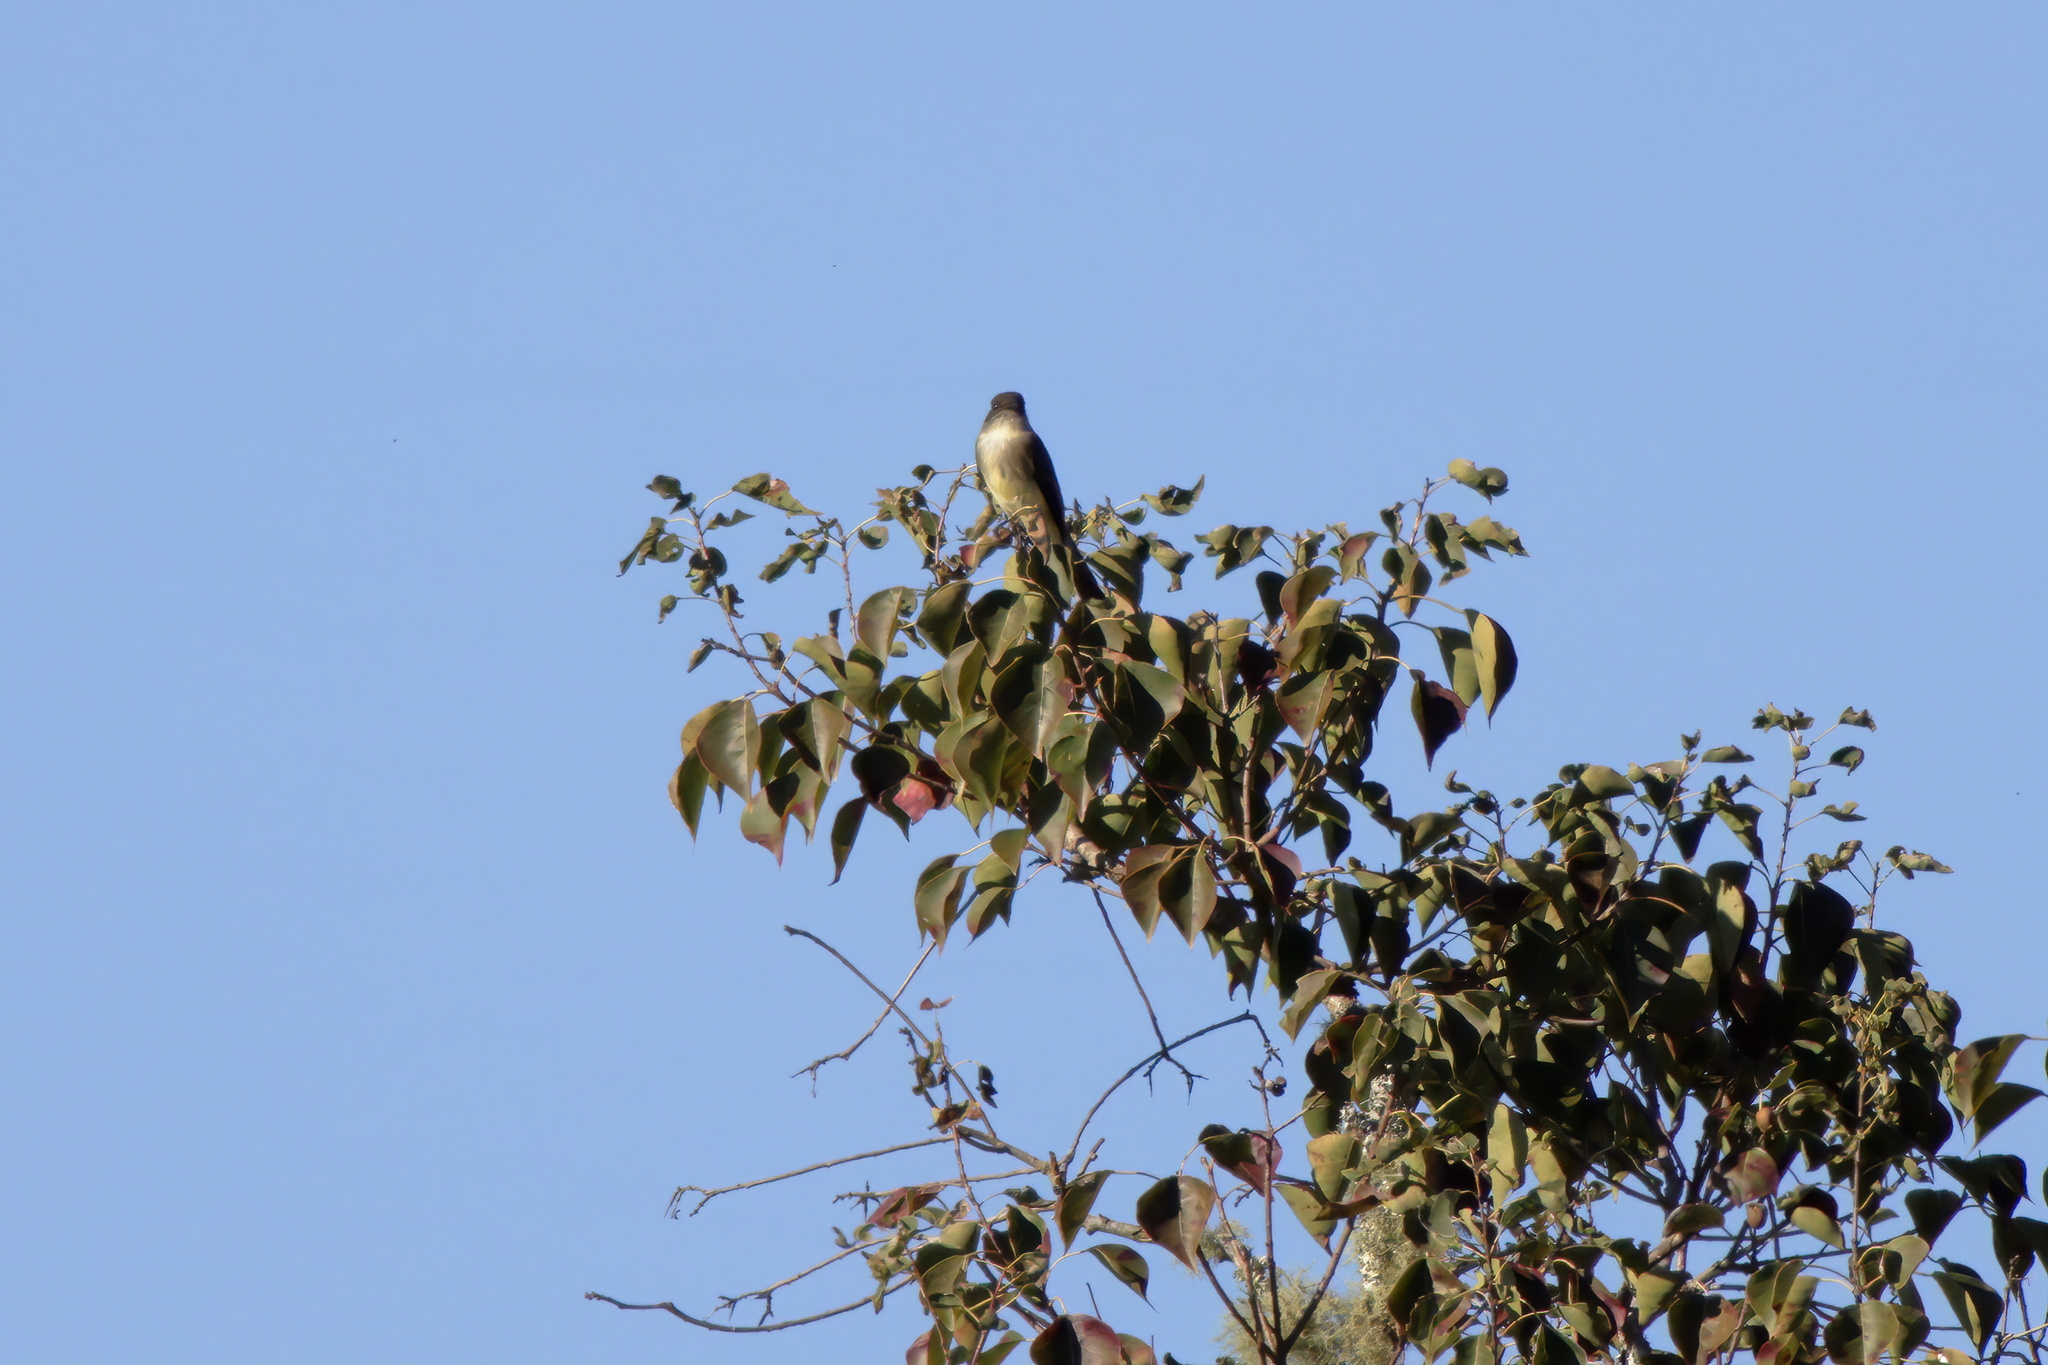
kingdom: Animalia
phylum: Chordata
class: Aves
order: Passeriformes
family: Tyrannidae
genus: Sayornis
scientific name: Sayornis phoebe
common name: Eastern phoebe
